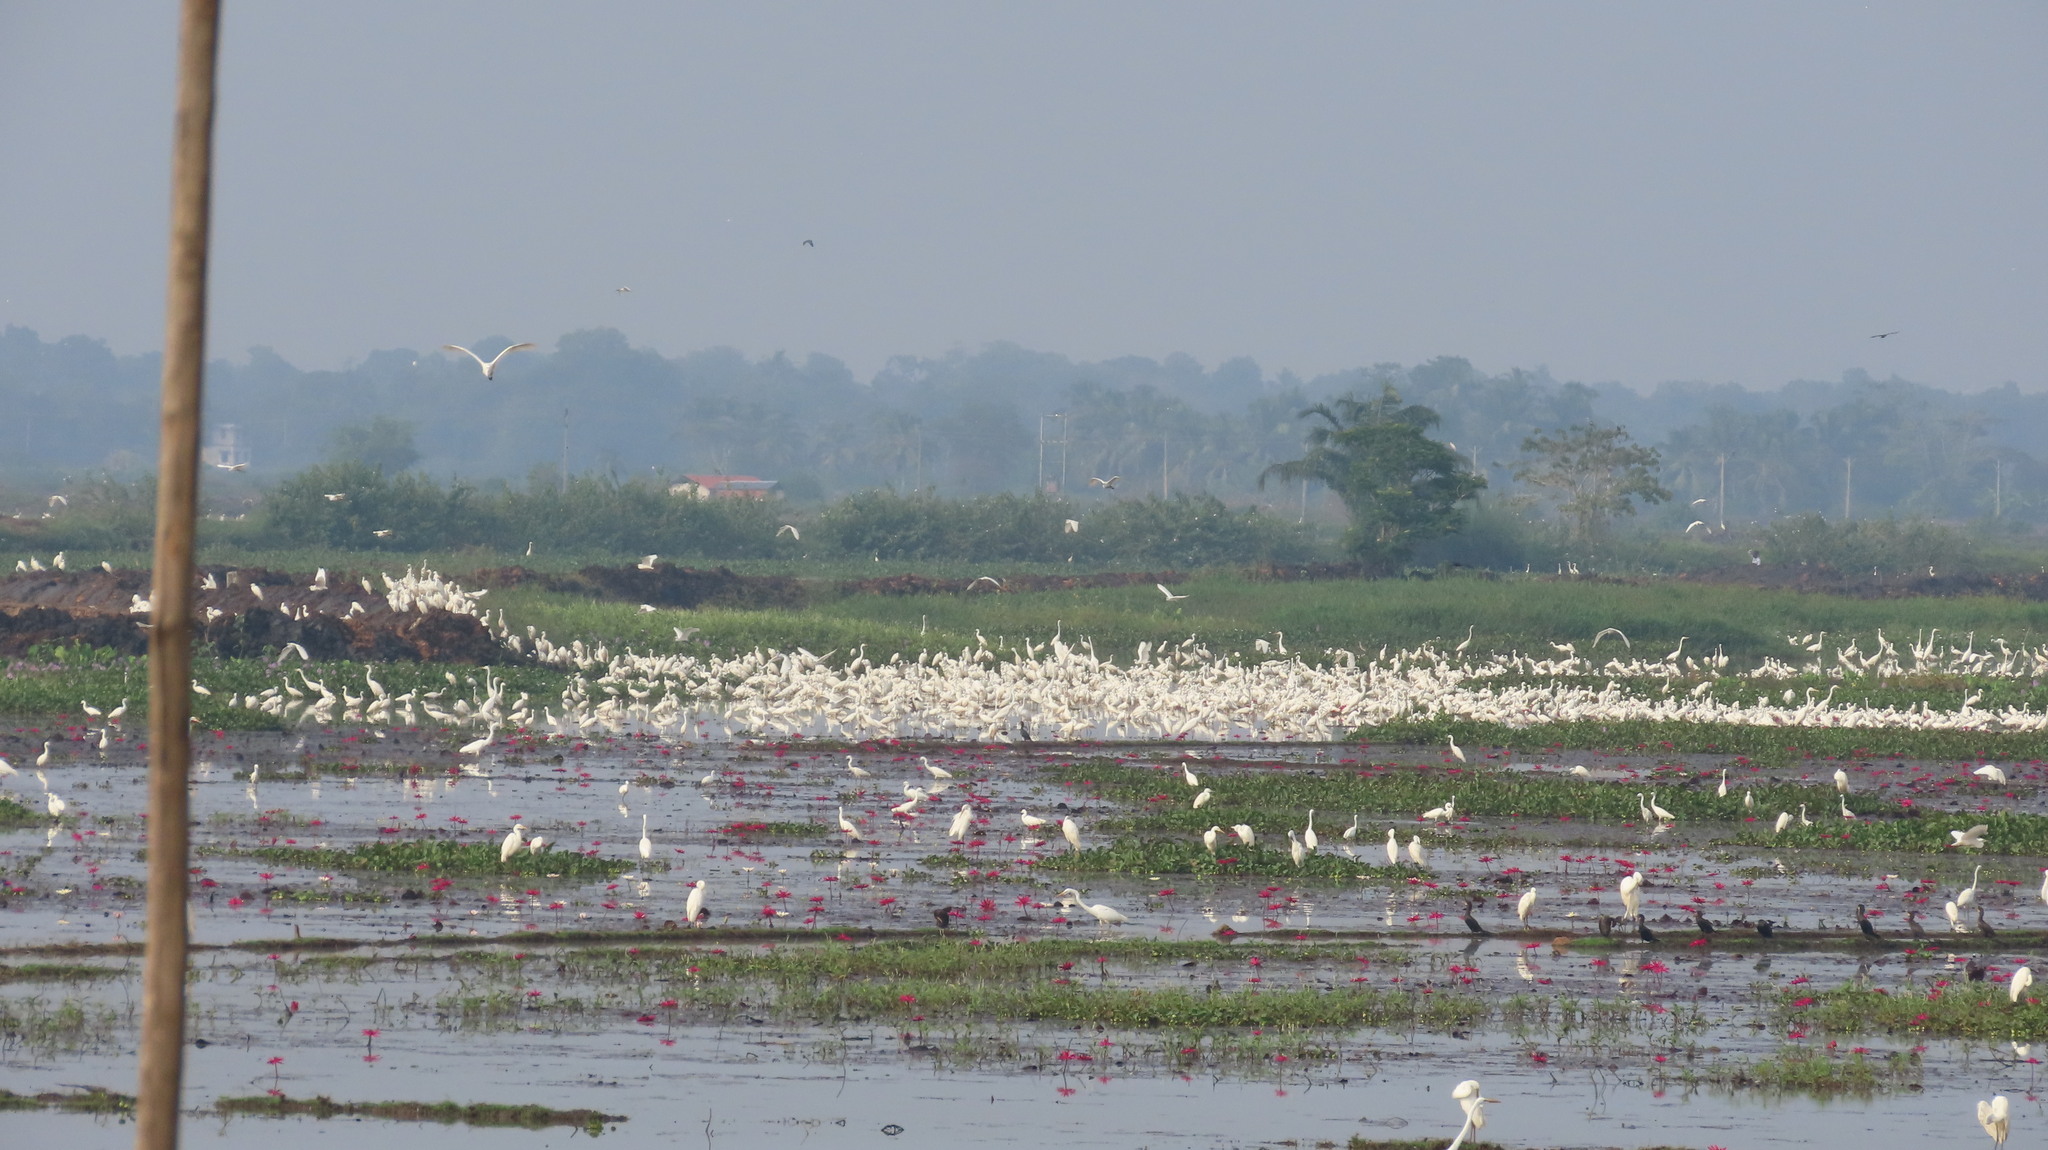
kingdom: Animalia
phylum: Chordata
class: Aves
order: Suliformes
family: Phalacrocoracidae
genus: Microcarbo
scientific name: Microcarbo niger
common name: Little cormorant
